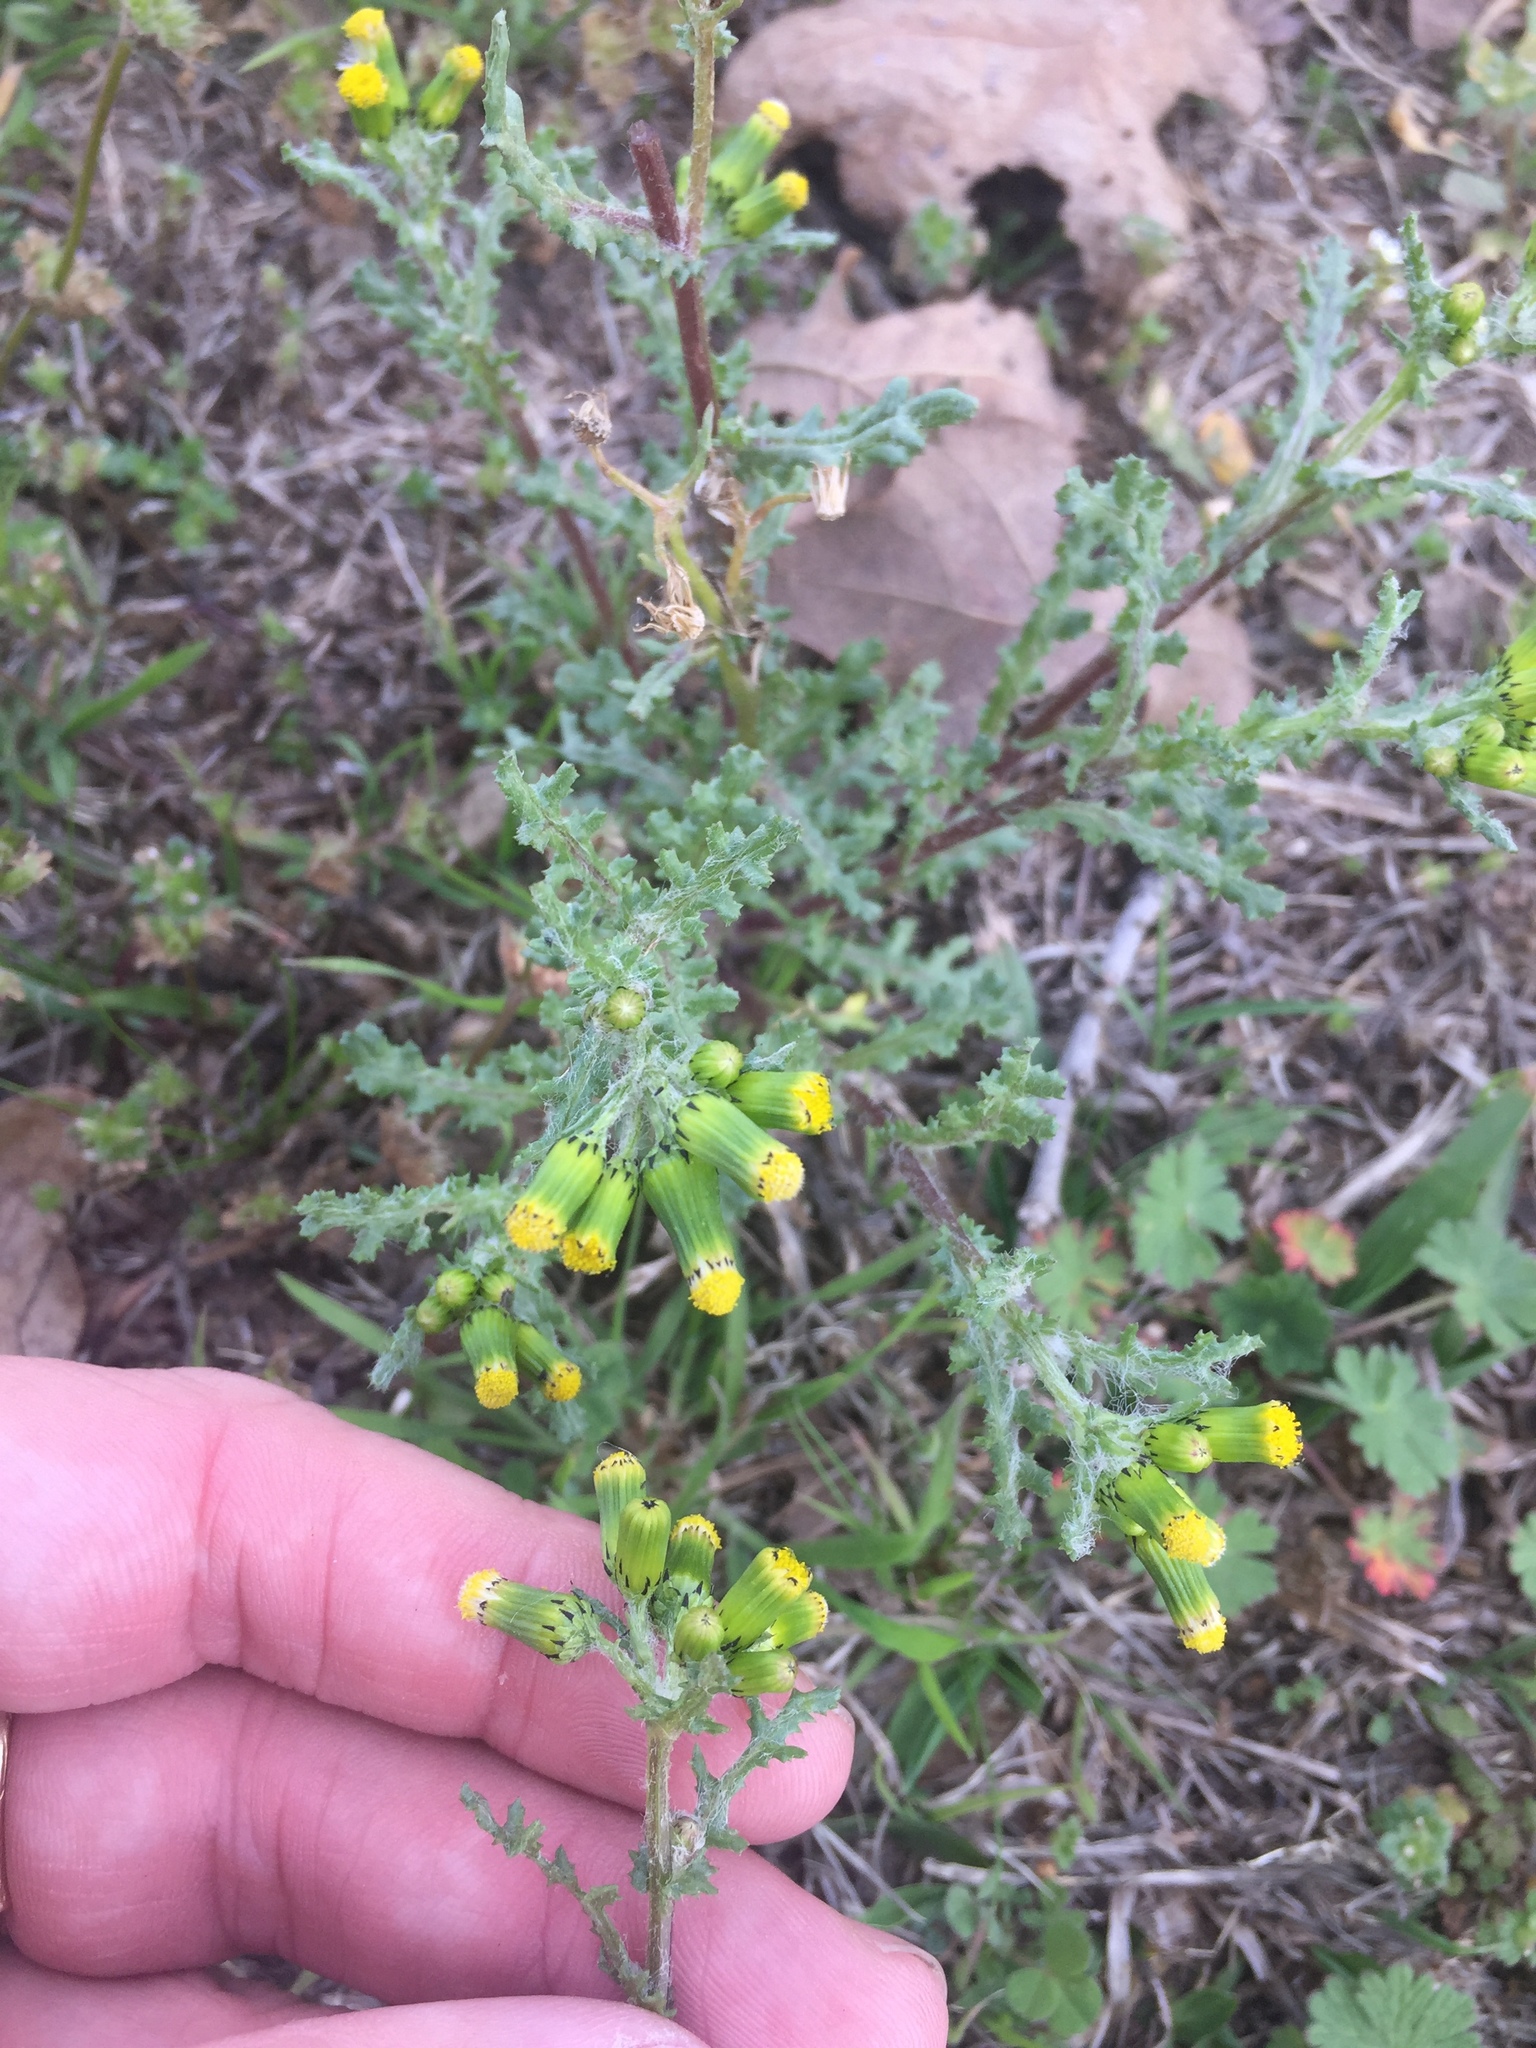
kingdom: Plantae
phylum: Tracheophyta
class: Magnoliopsida
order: Asterales
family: Asteraceae
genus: Senecio
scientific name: Senecio vulgaris
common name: Old-man-in-the-spring
